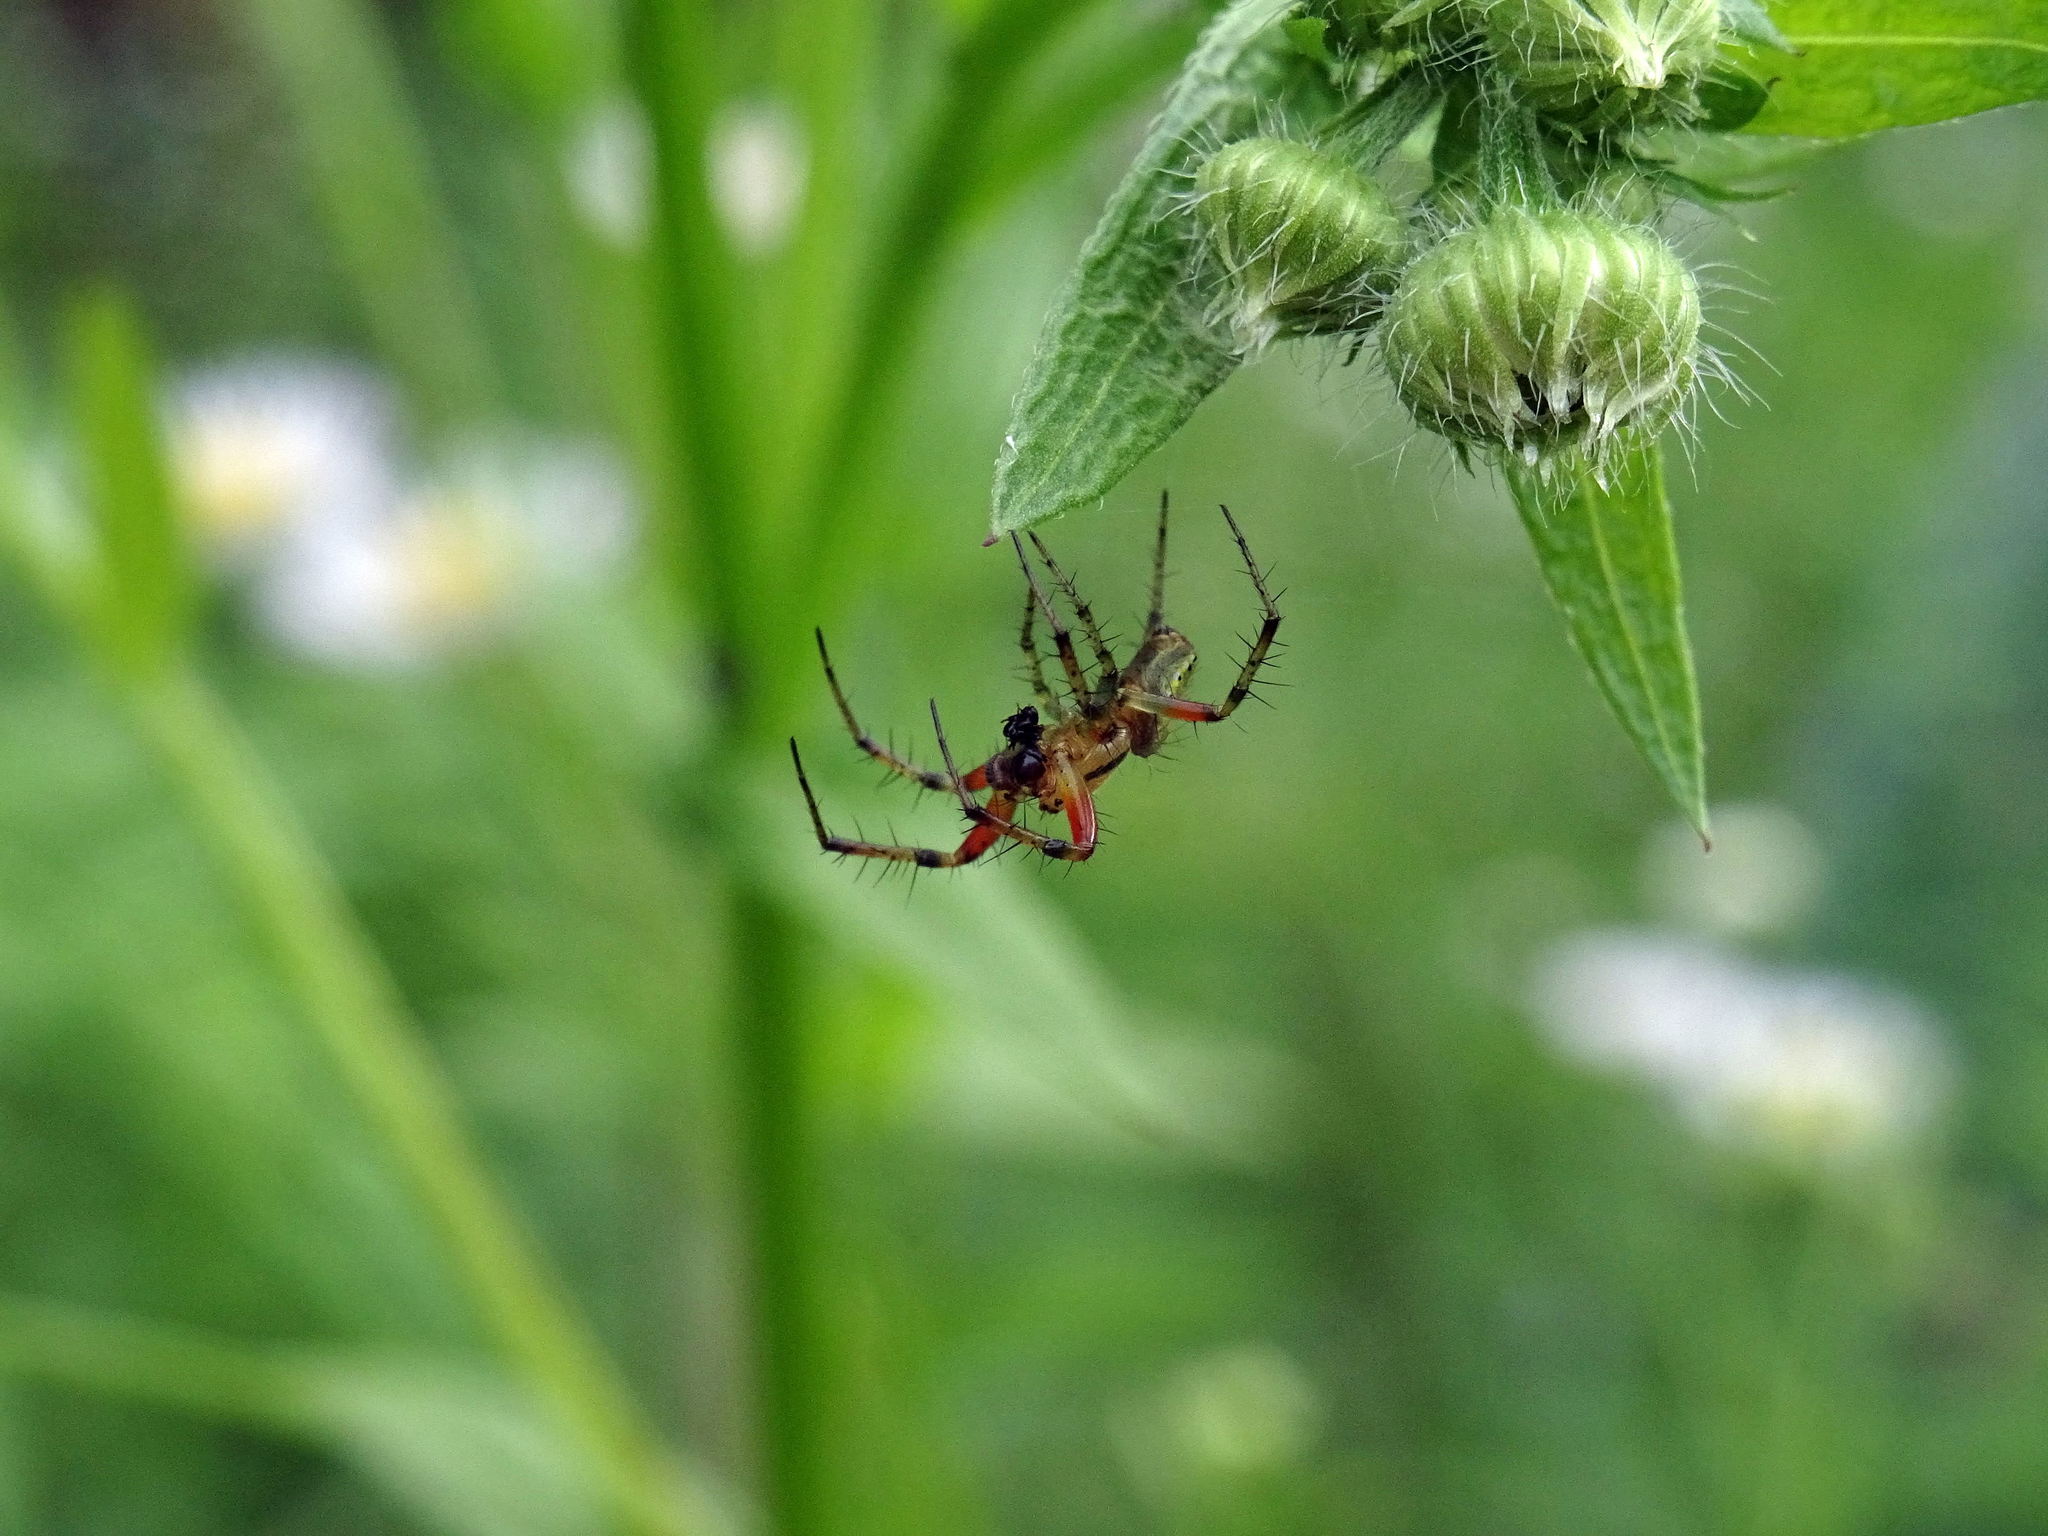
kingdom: Animalia
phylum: Arthropoda
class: Arachnida
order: Araneae
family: Araneidae
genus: Araniella
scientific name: Araniella cucurbitina
